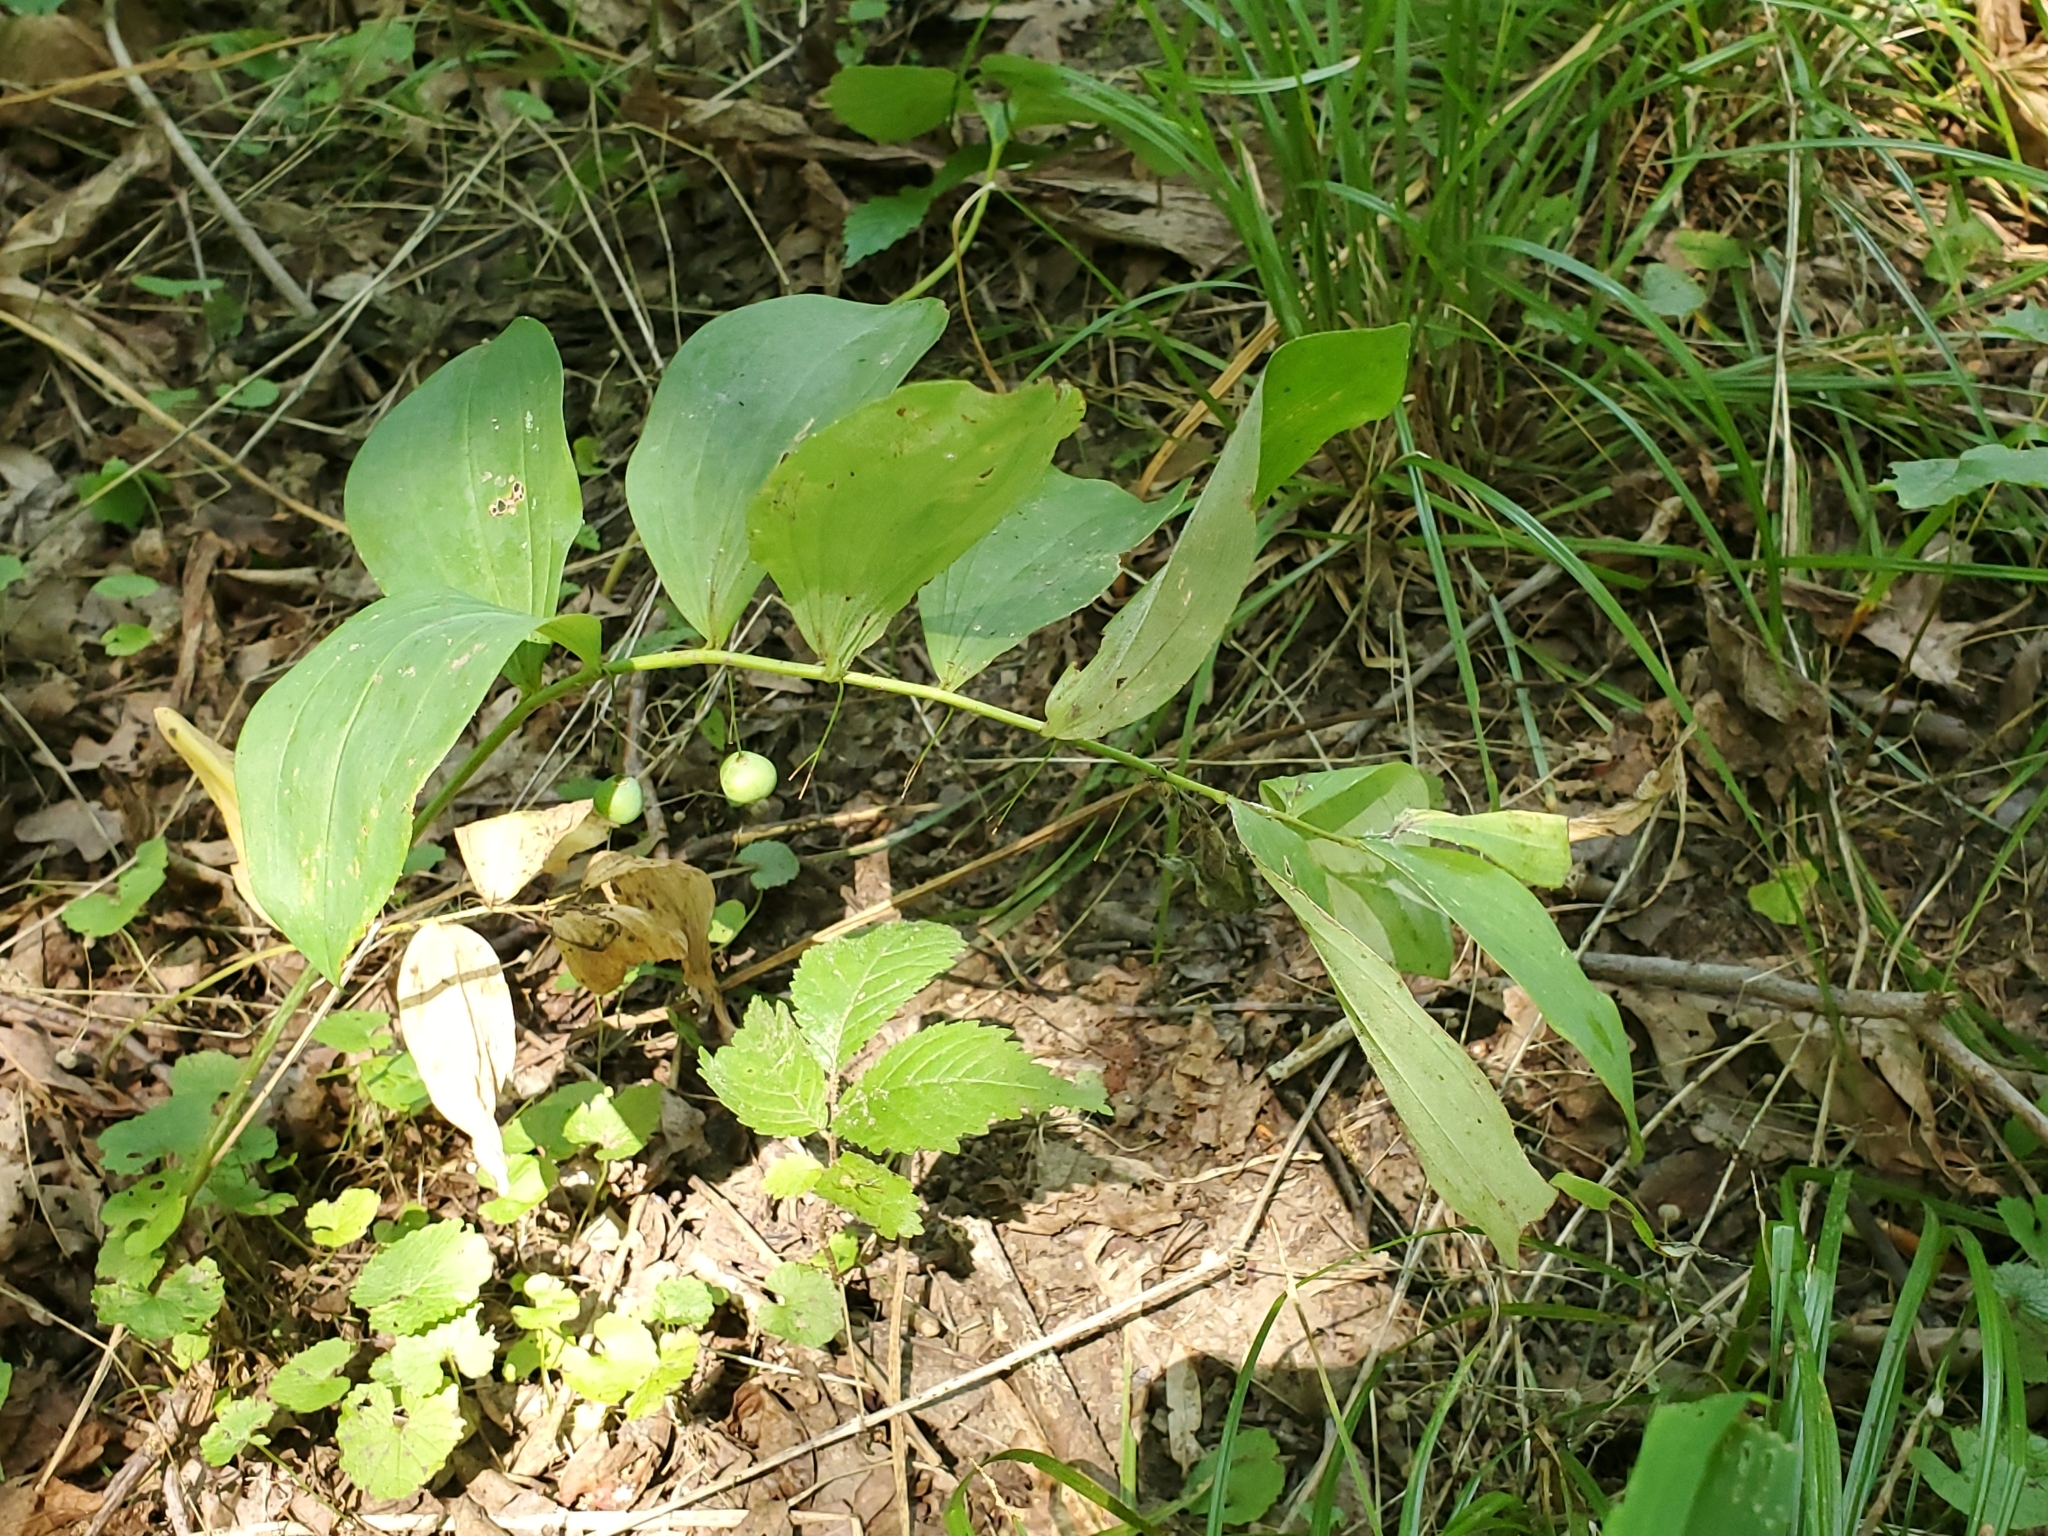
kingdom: Plantae
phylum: Tracheophyta
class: Liliopsida
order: Asparagales
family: Asparagaceae
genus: Maianthemum
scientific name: Maianthemum racemosum
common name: False spikenard
